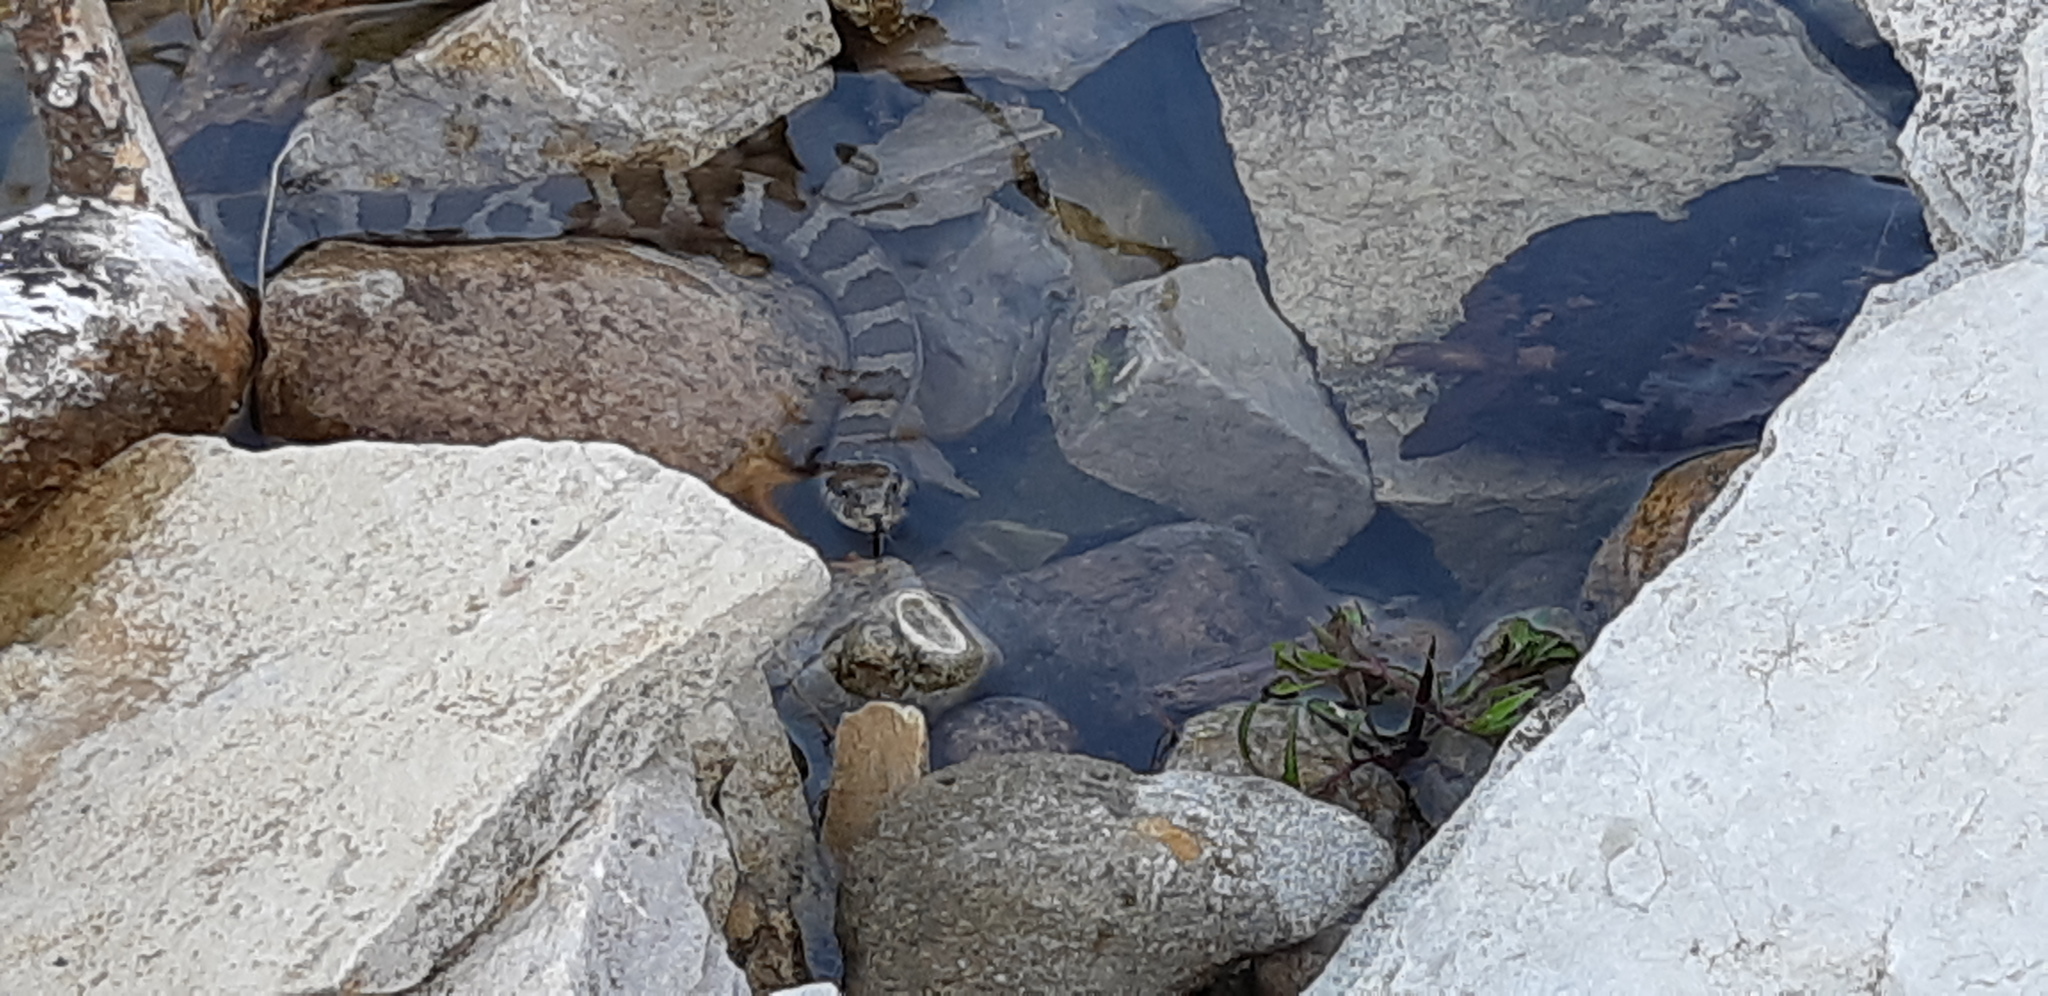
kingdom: Animalia
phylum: Chordata
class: Squamata
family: Colubridae
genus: Nerodia
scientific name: Nerodia sipedon
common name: Northern water snake
